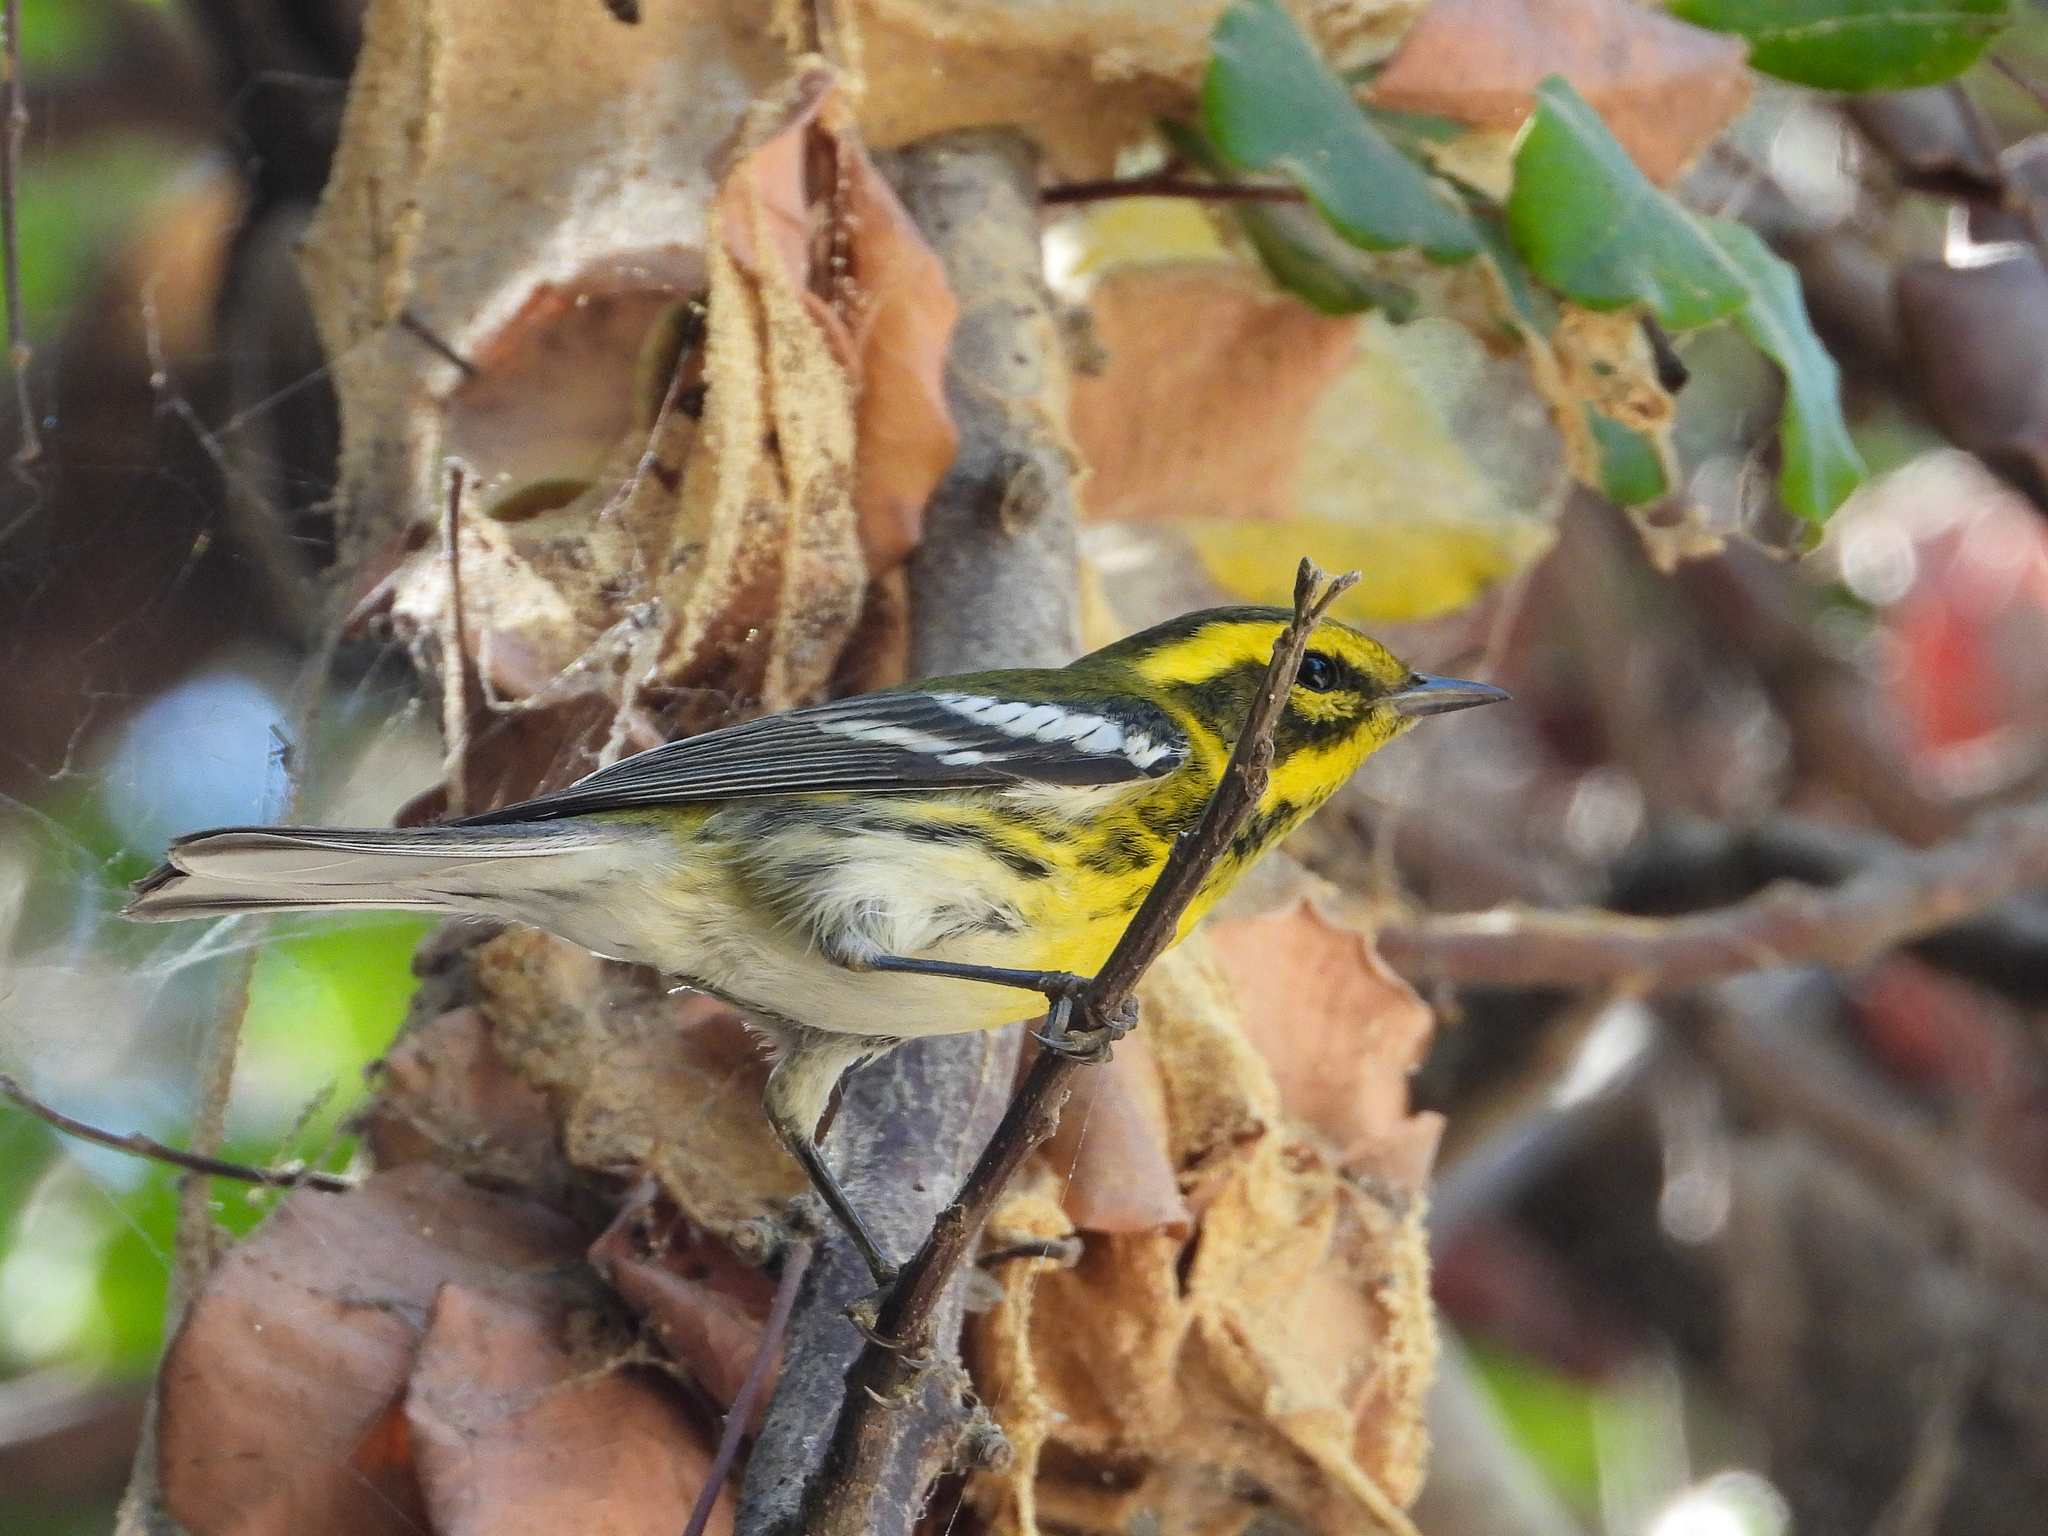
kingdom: Animalia
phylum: Chordata
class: Aves
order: Passeriformes
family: Parulidae
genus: Setophaga
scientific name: Setophaga townsendi
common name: Townsend's warbler
